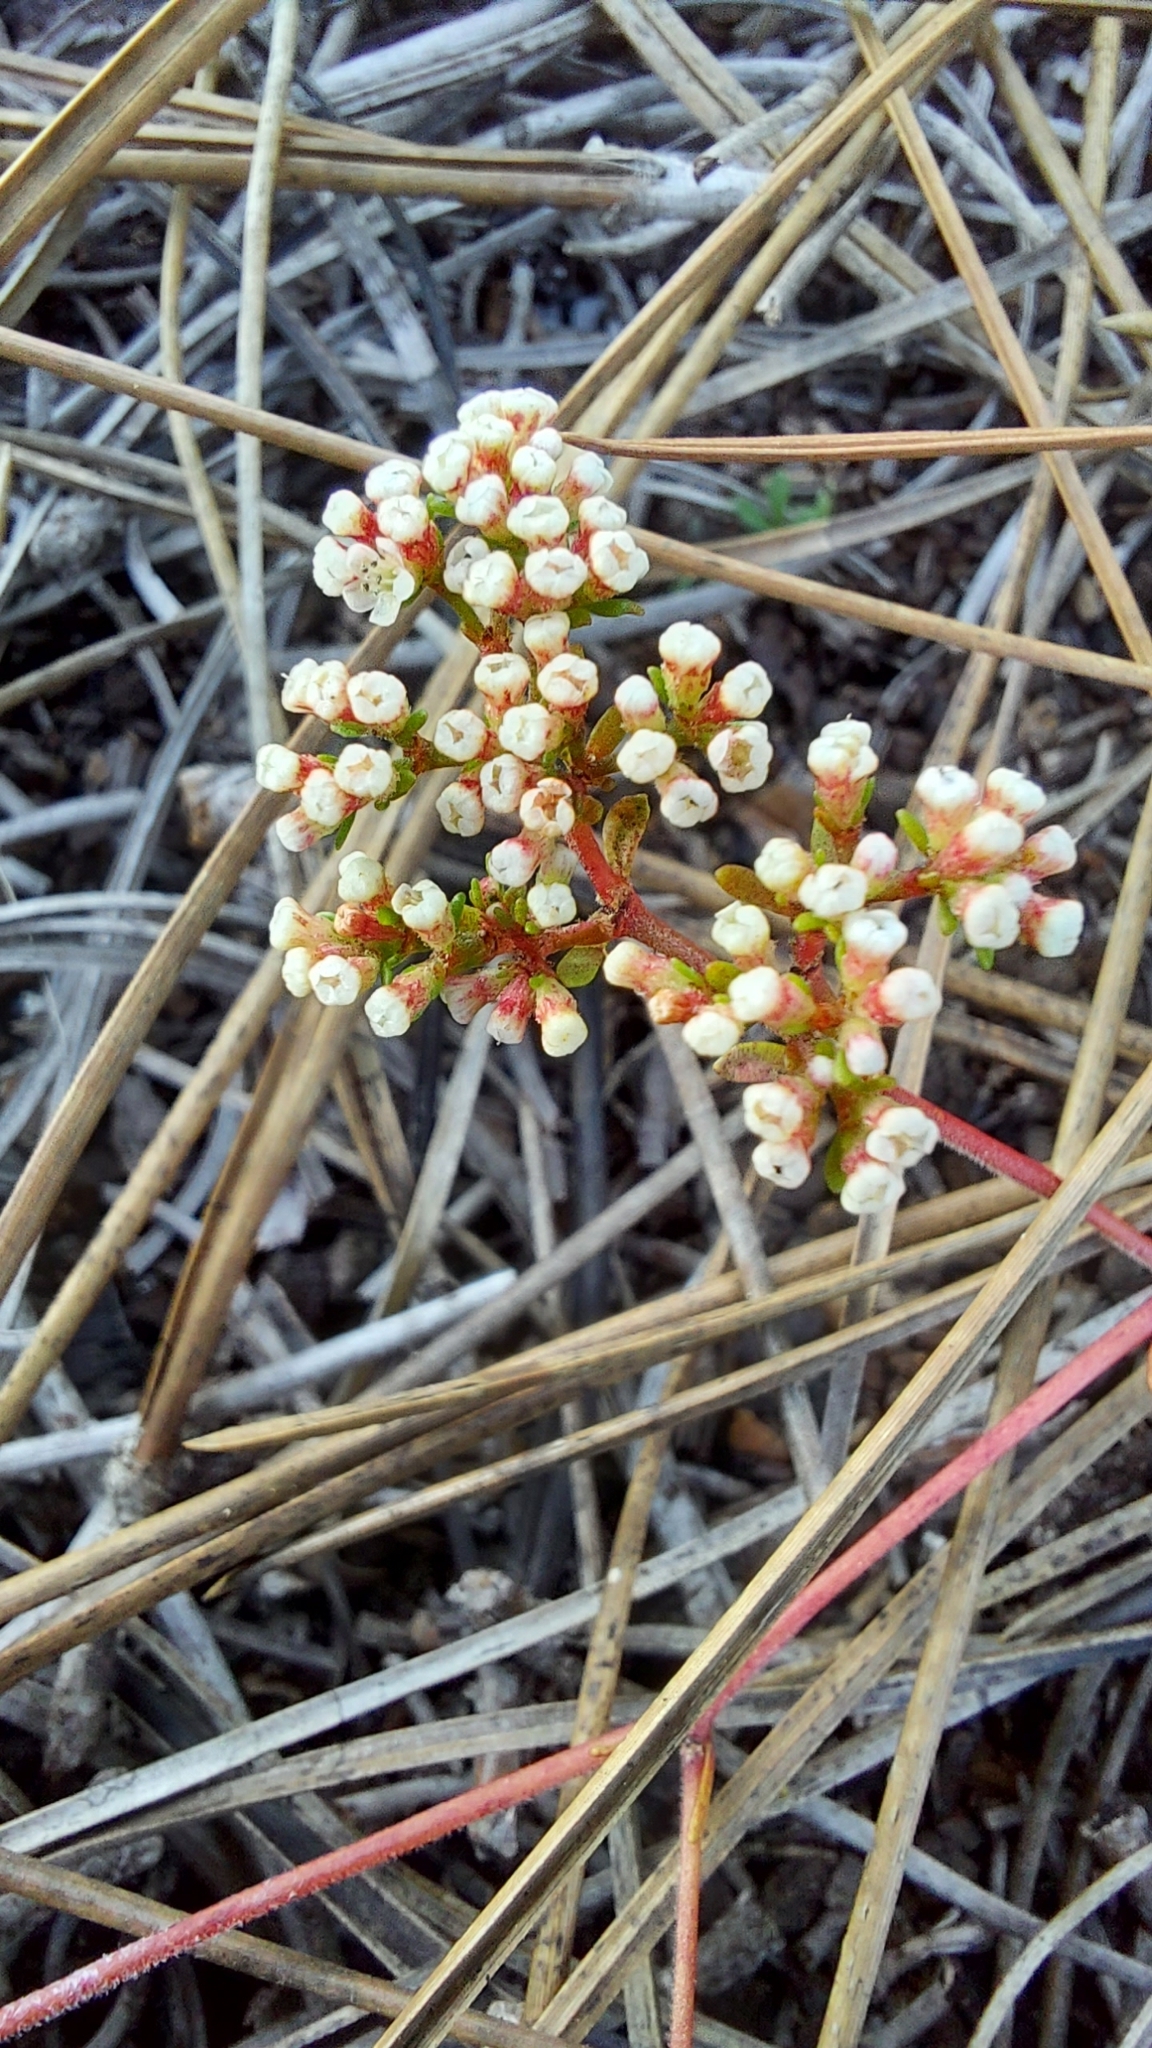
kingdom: Plantae
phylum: Tracheophyta
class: Magnoliopsida
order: Caryophyllales
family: Caryophyllaceae
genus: Paronychia
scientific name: Paronychia americana
